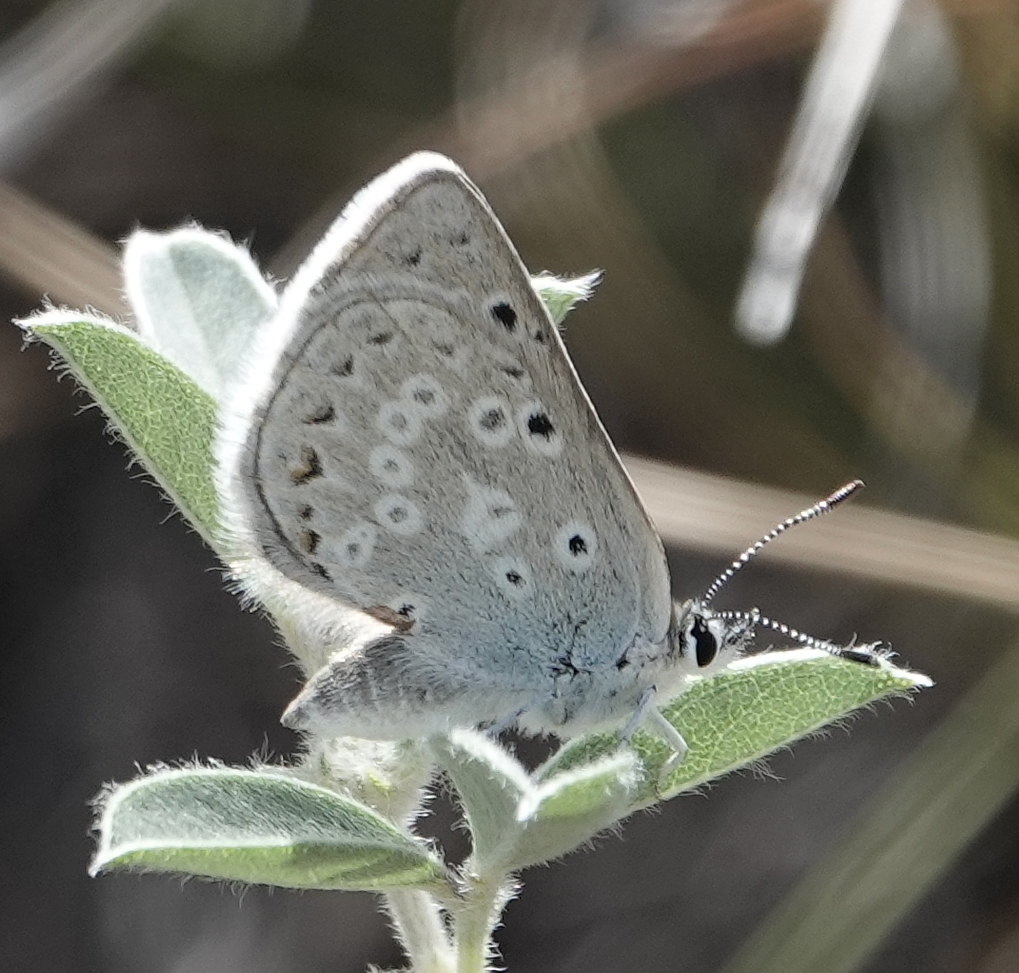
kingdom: Animalia
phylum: Arthropoda
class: Insecta
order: Lepidoptera
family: Lycaenidae
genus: Icaricia
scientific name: Icaricia icarioides
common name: Boisduval's blue
